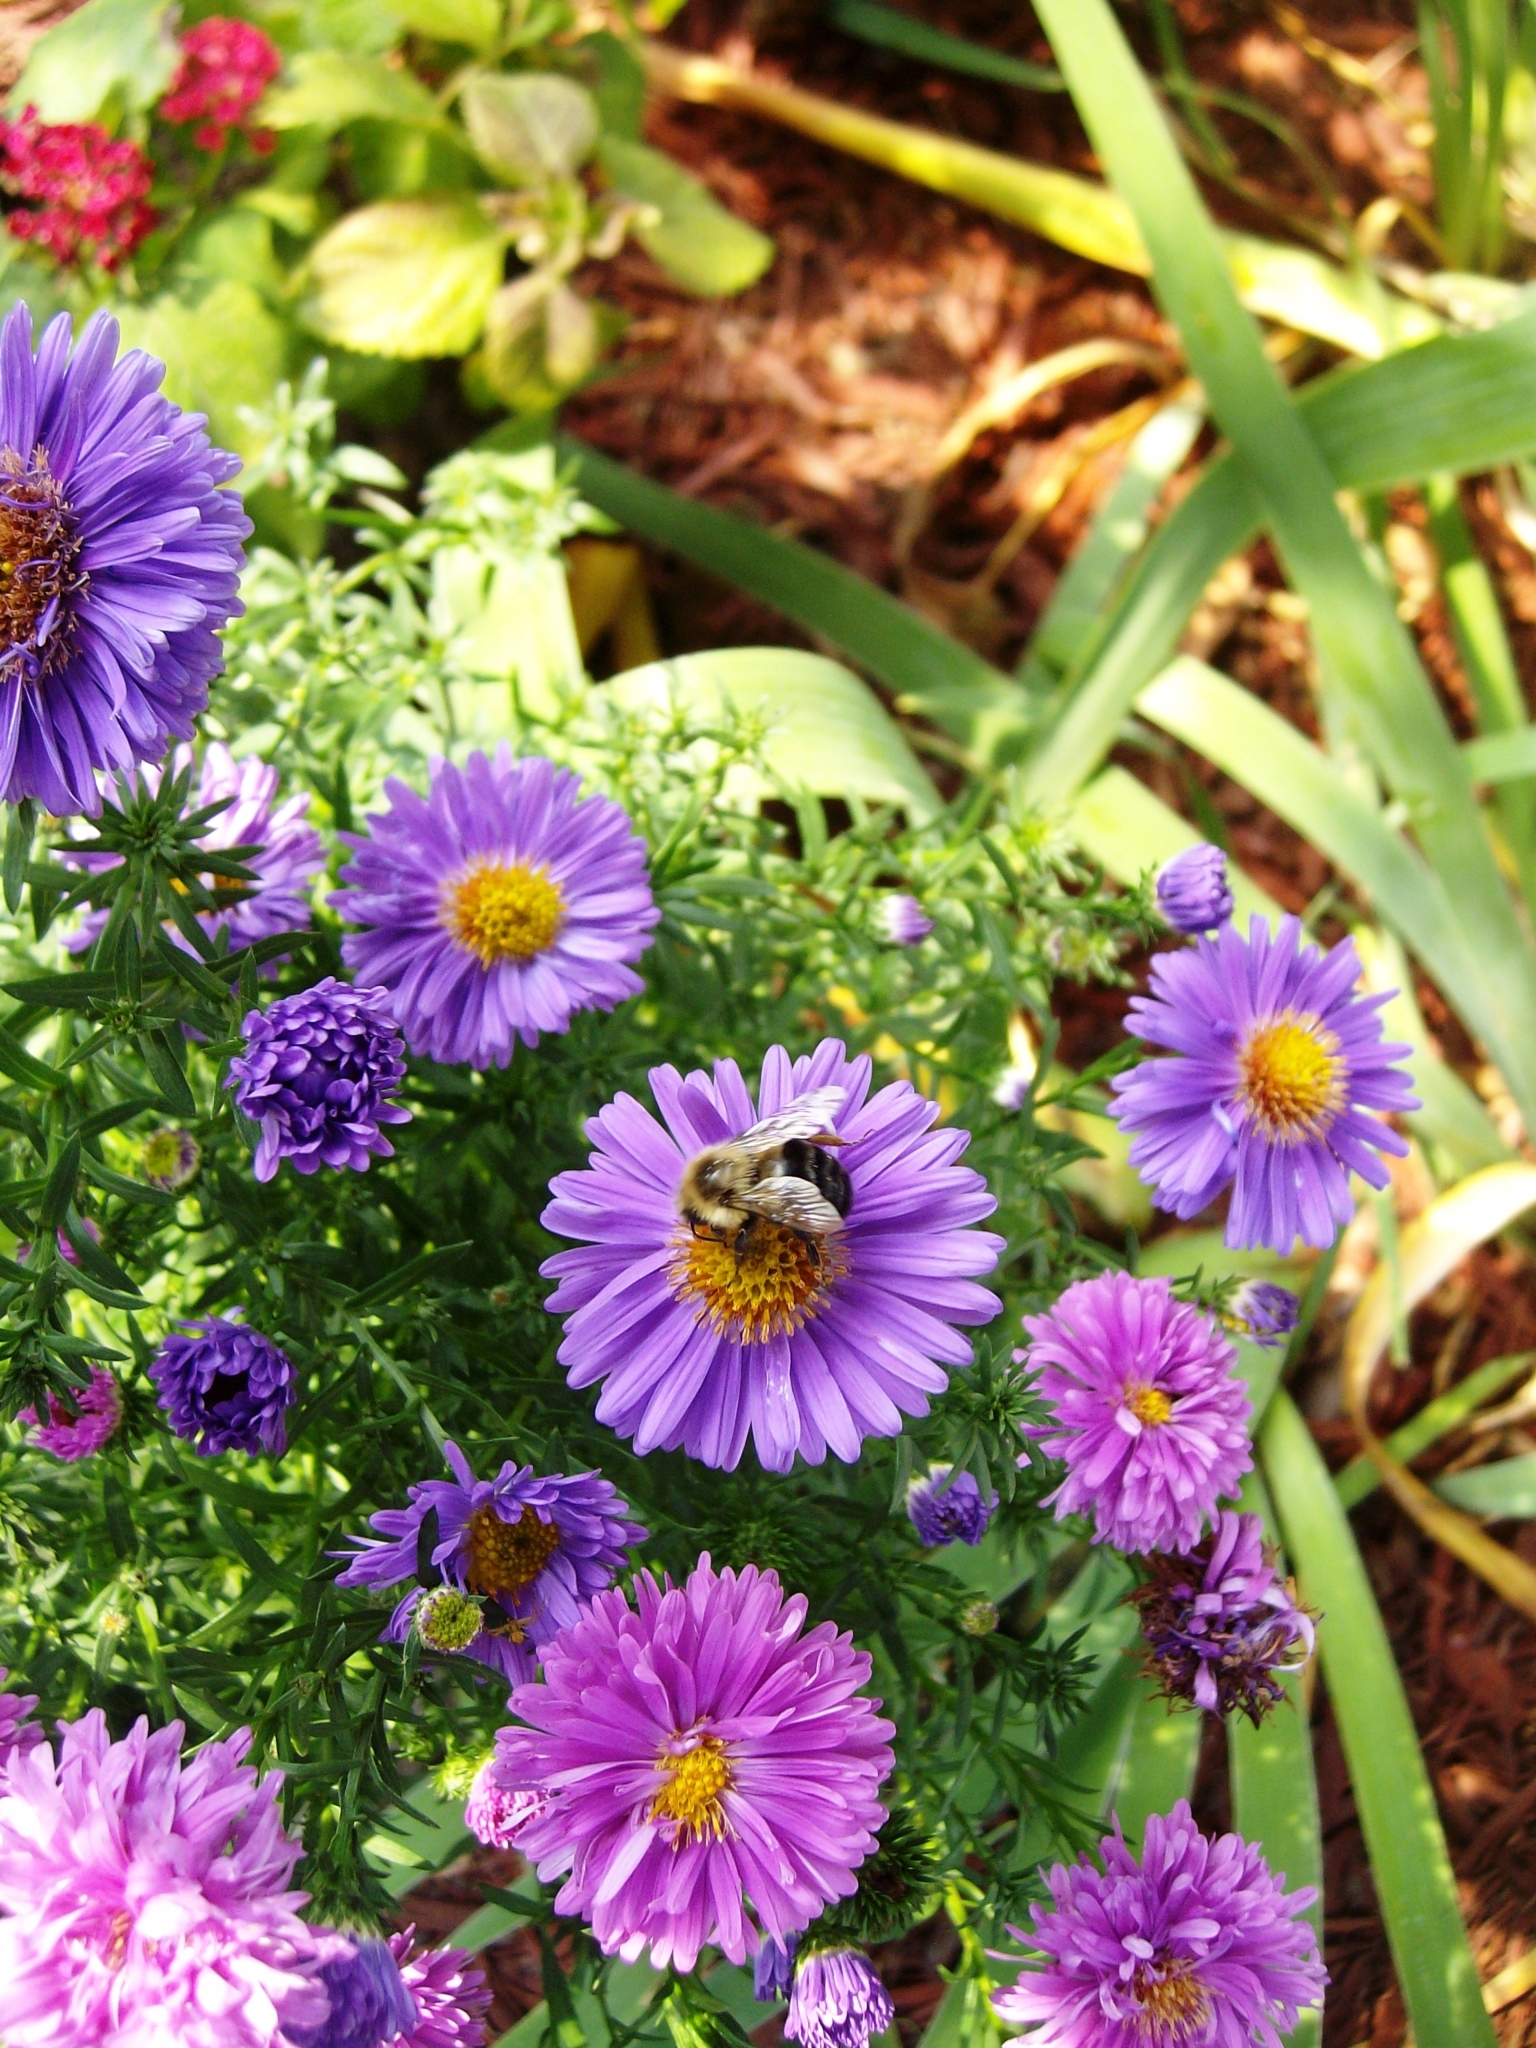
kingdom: Animalia
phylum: Arthropoda
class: Insecta
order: Hymenoptera
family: Apidae
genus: Bombus
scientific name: Bombus impatiens
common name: Common eastern bumble bee
